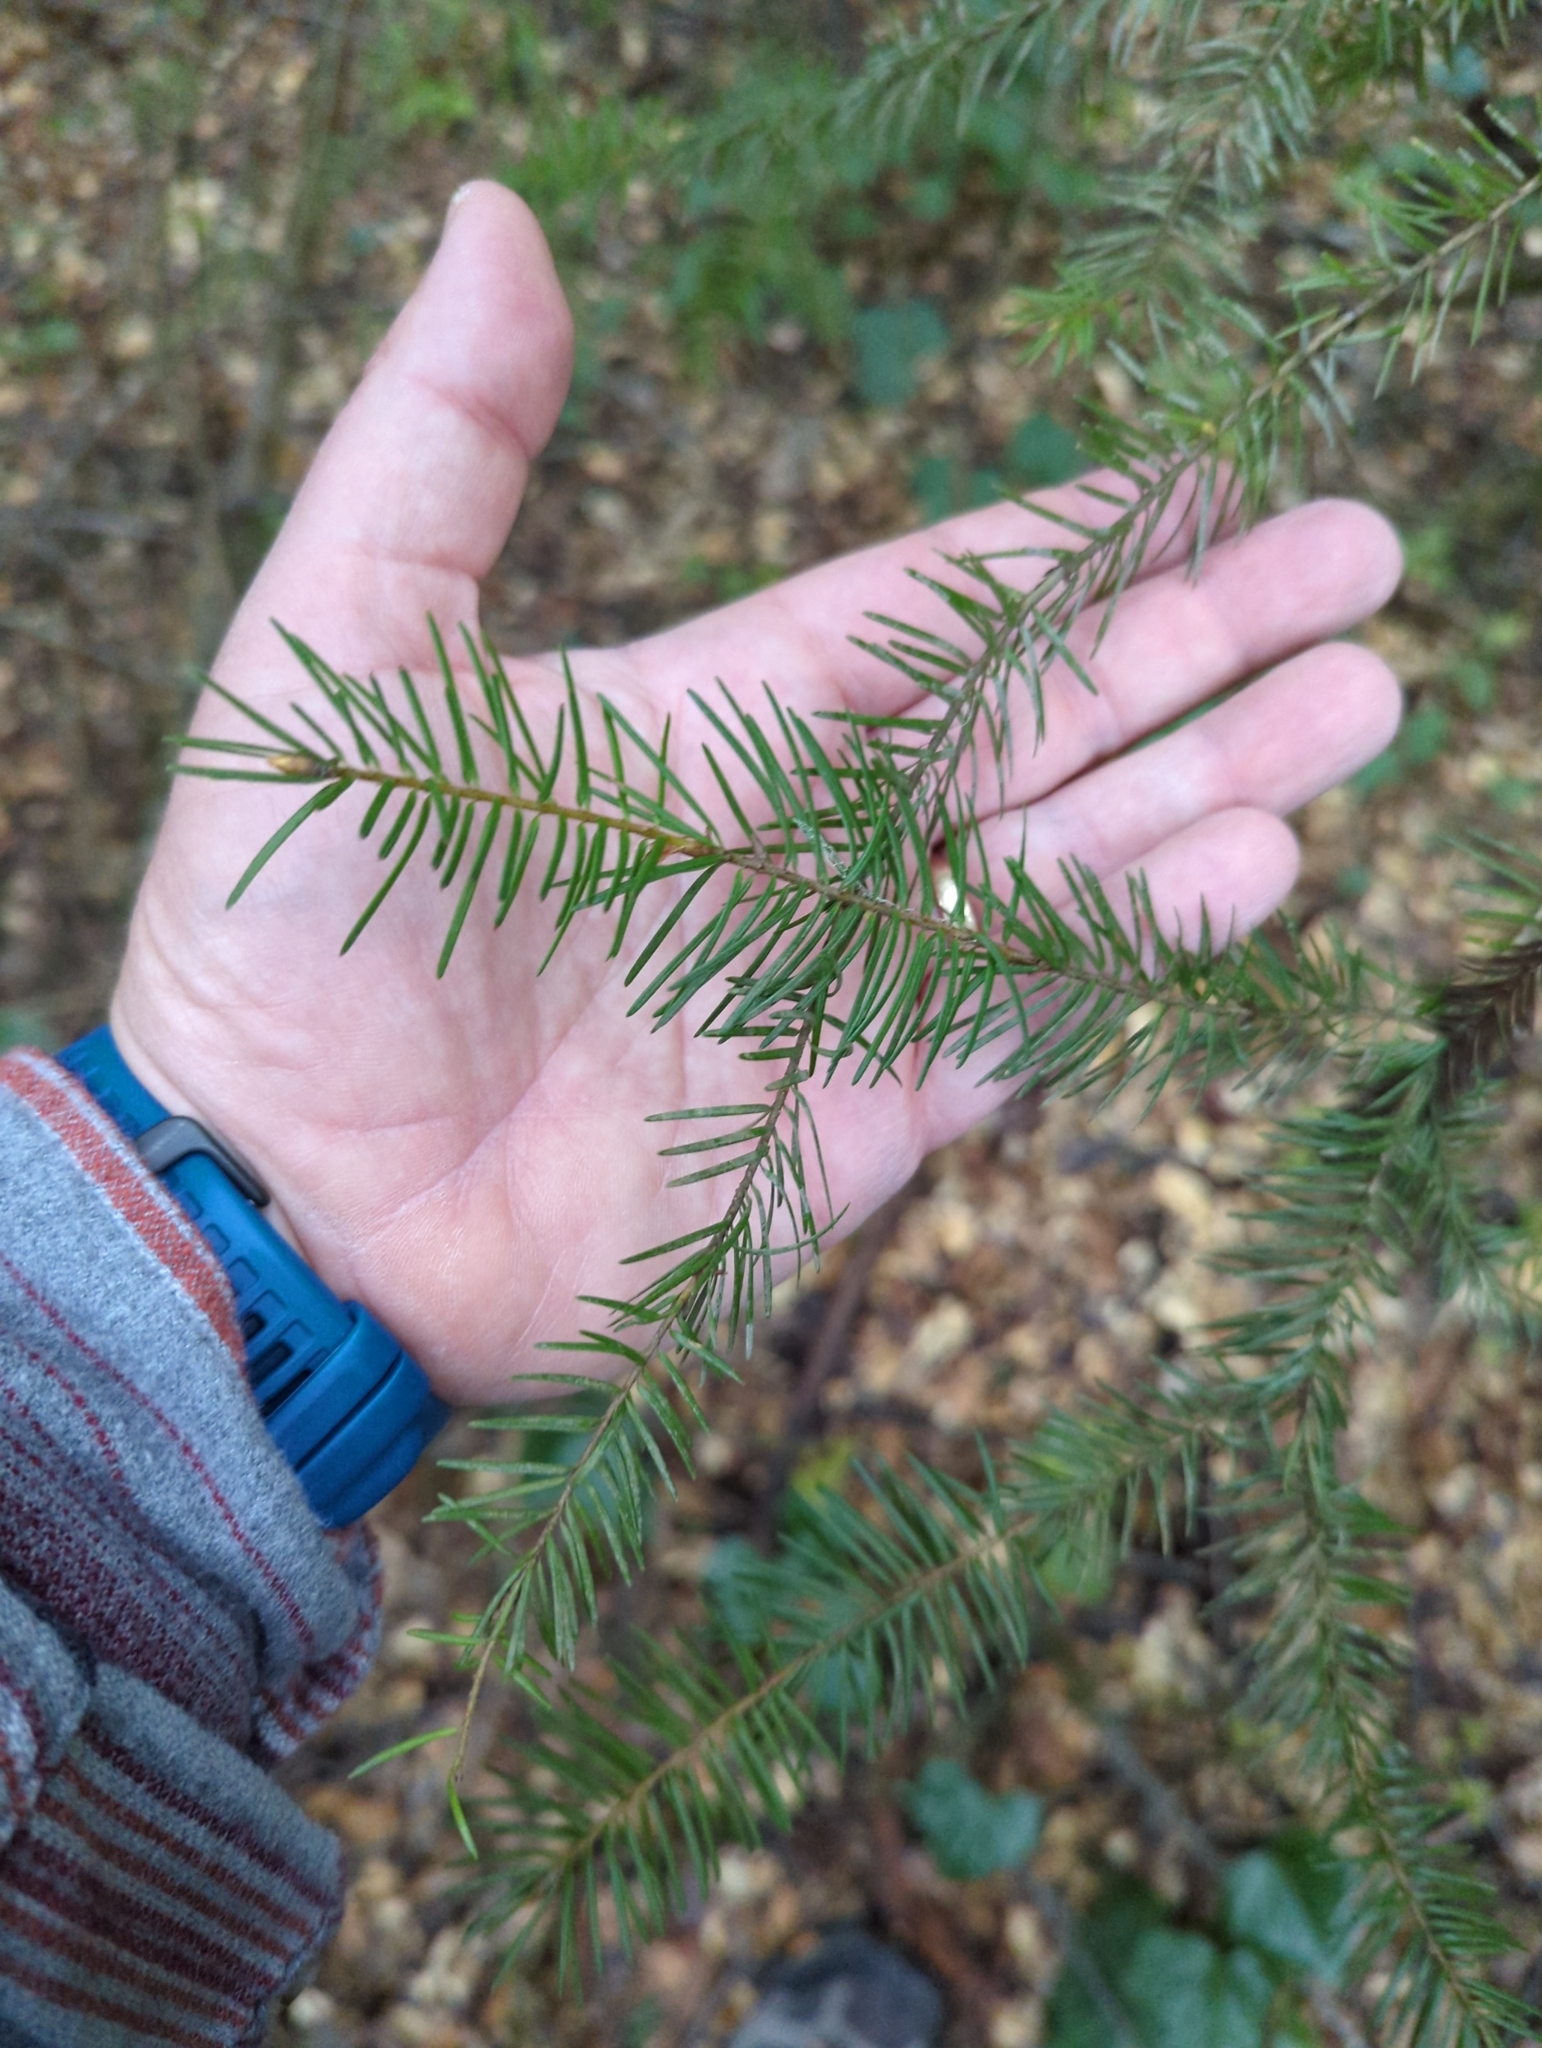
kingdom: Plantae
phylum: Tracheophyta
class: Pinopsida
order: Pinales
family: Pinaceae
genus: Pseudotsuga
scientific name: Pseudotsuga menziesii
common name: Douglas fir
